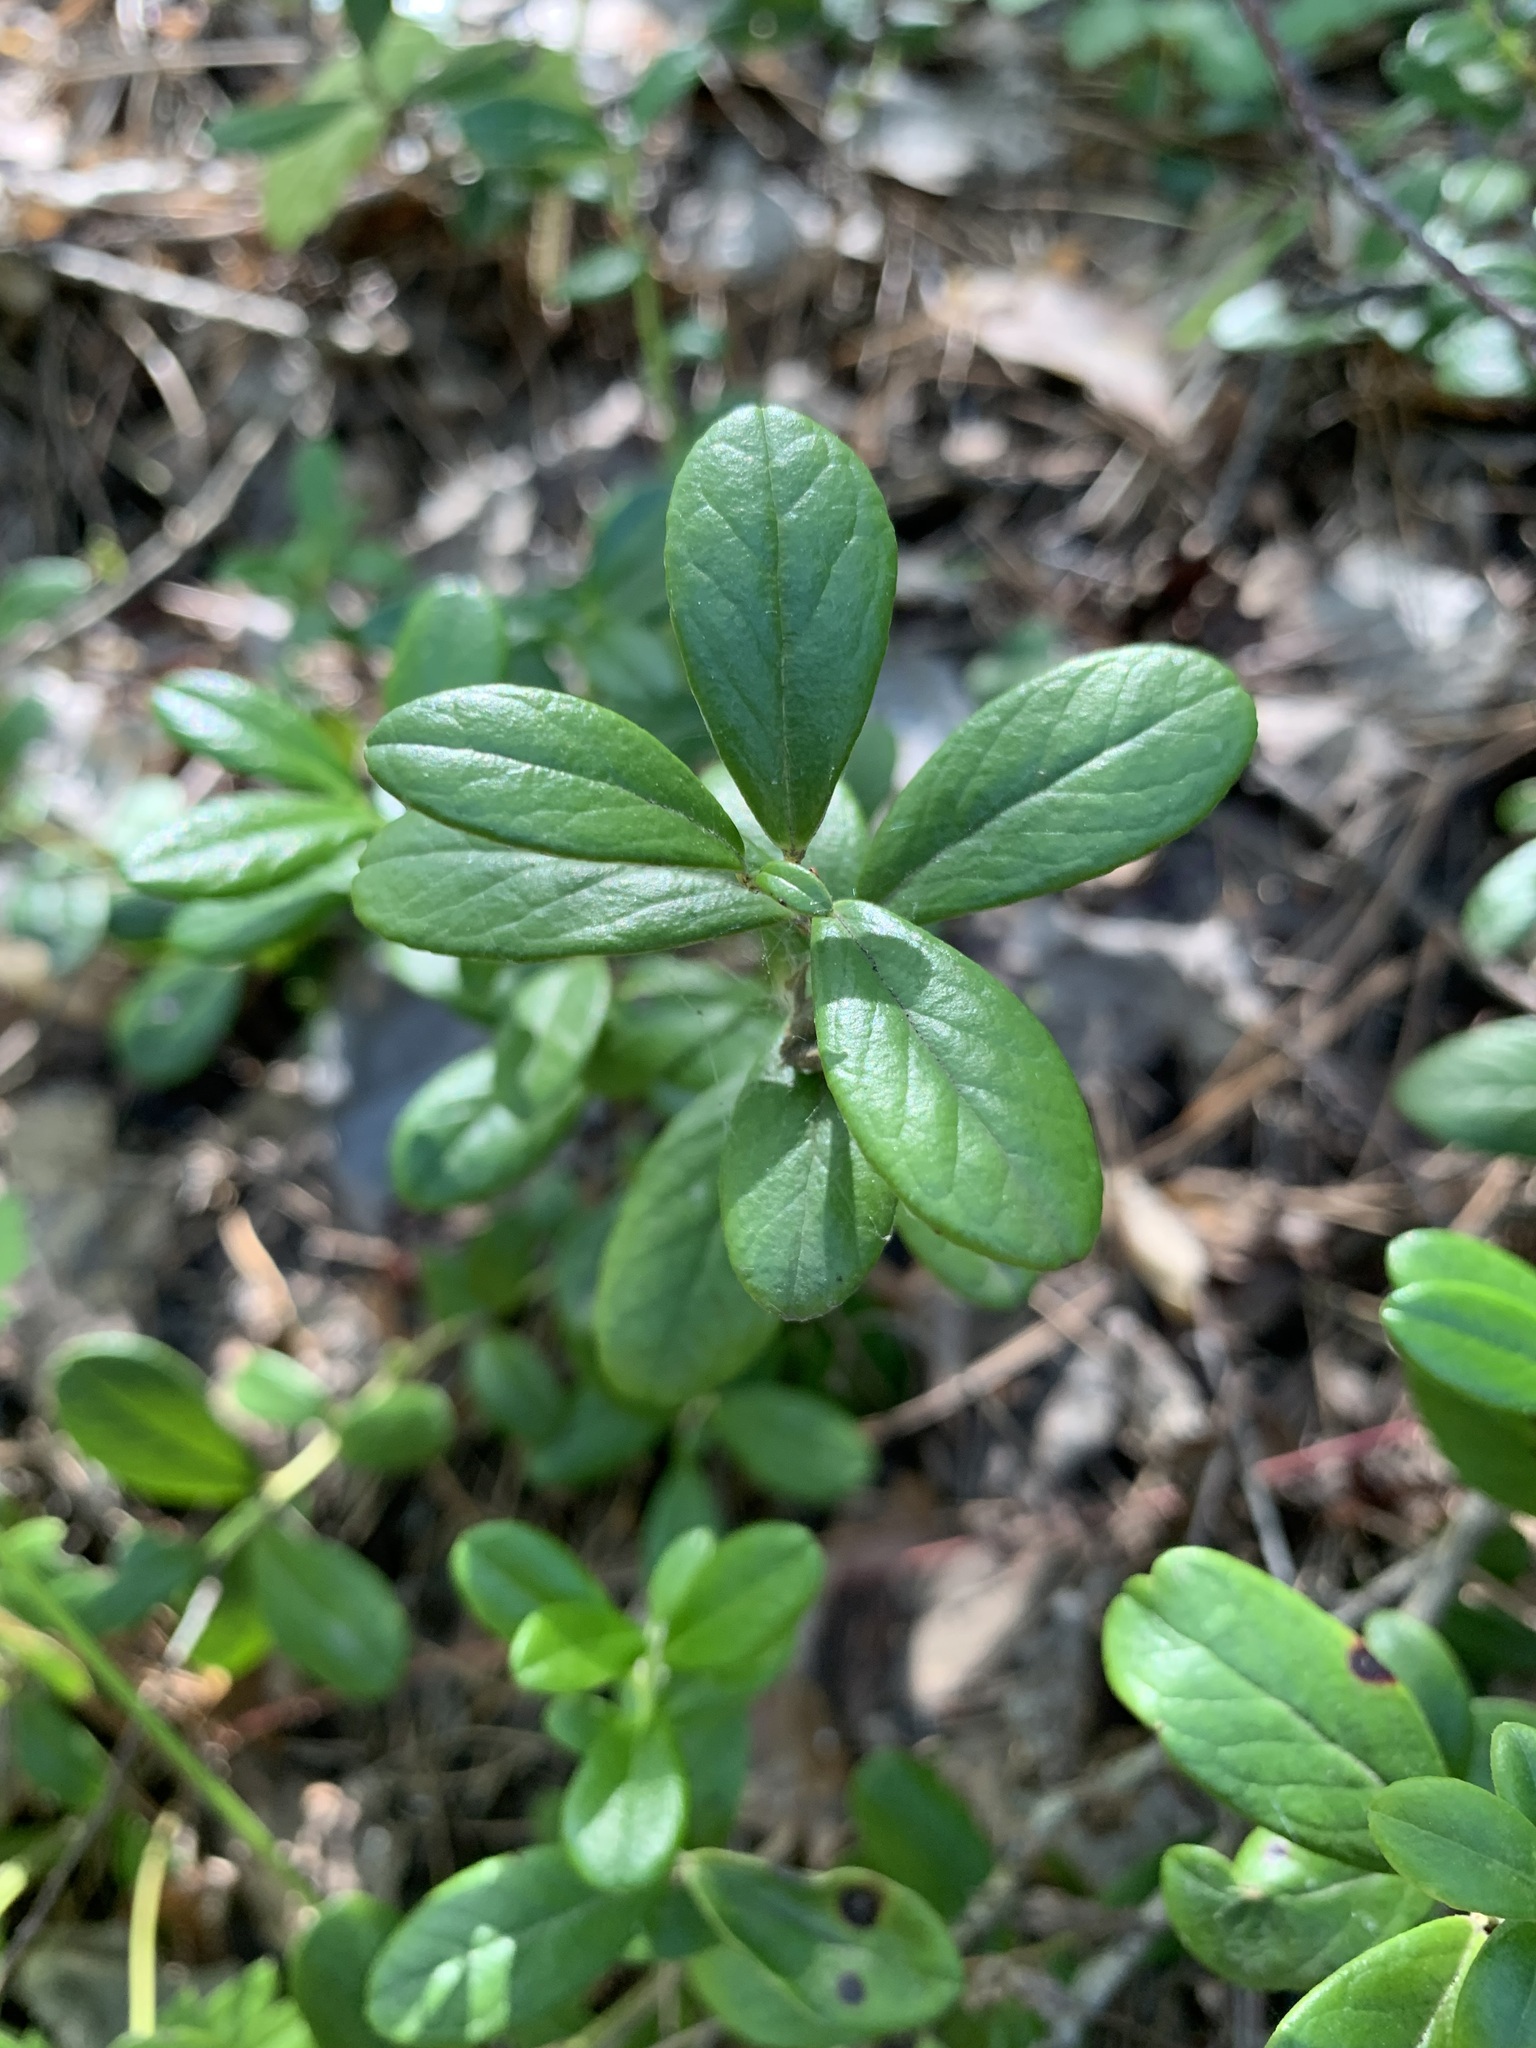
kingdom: Plantae
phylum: Tracheophyta
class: Magnoliopsida
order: Ericales
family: Ericaceae
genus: Vaccinium
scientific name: Vaccinium vitis-idaea
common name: Cowberry
